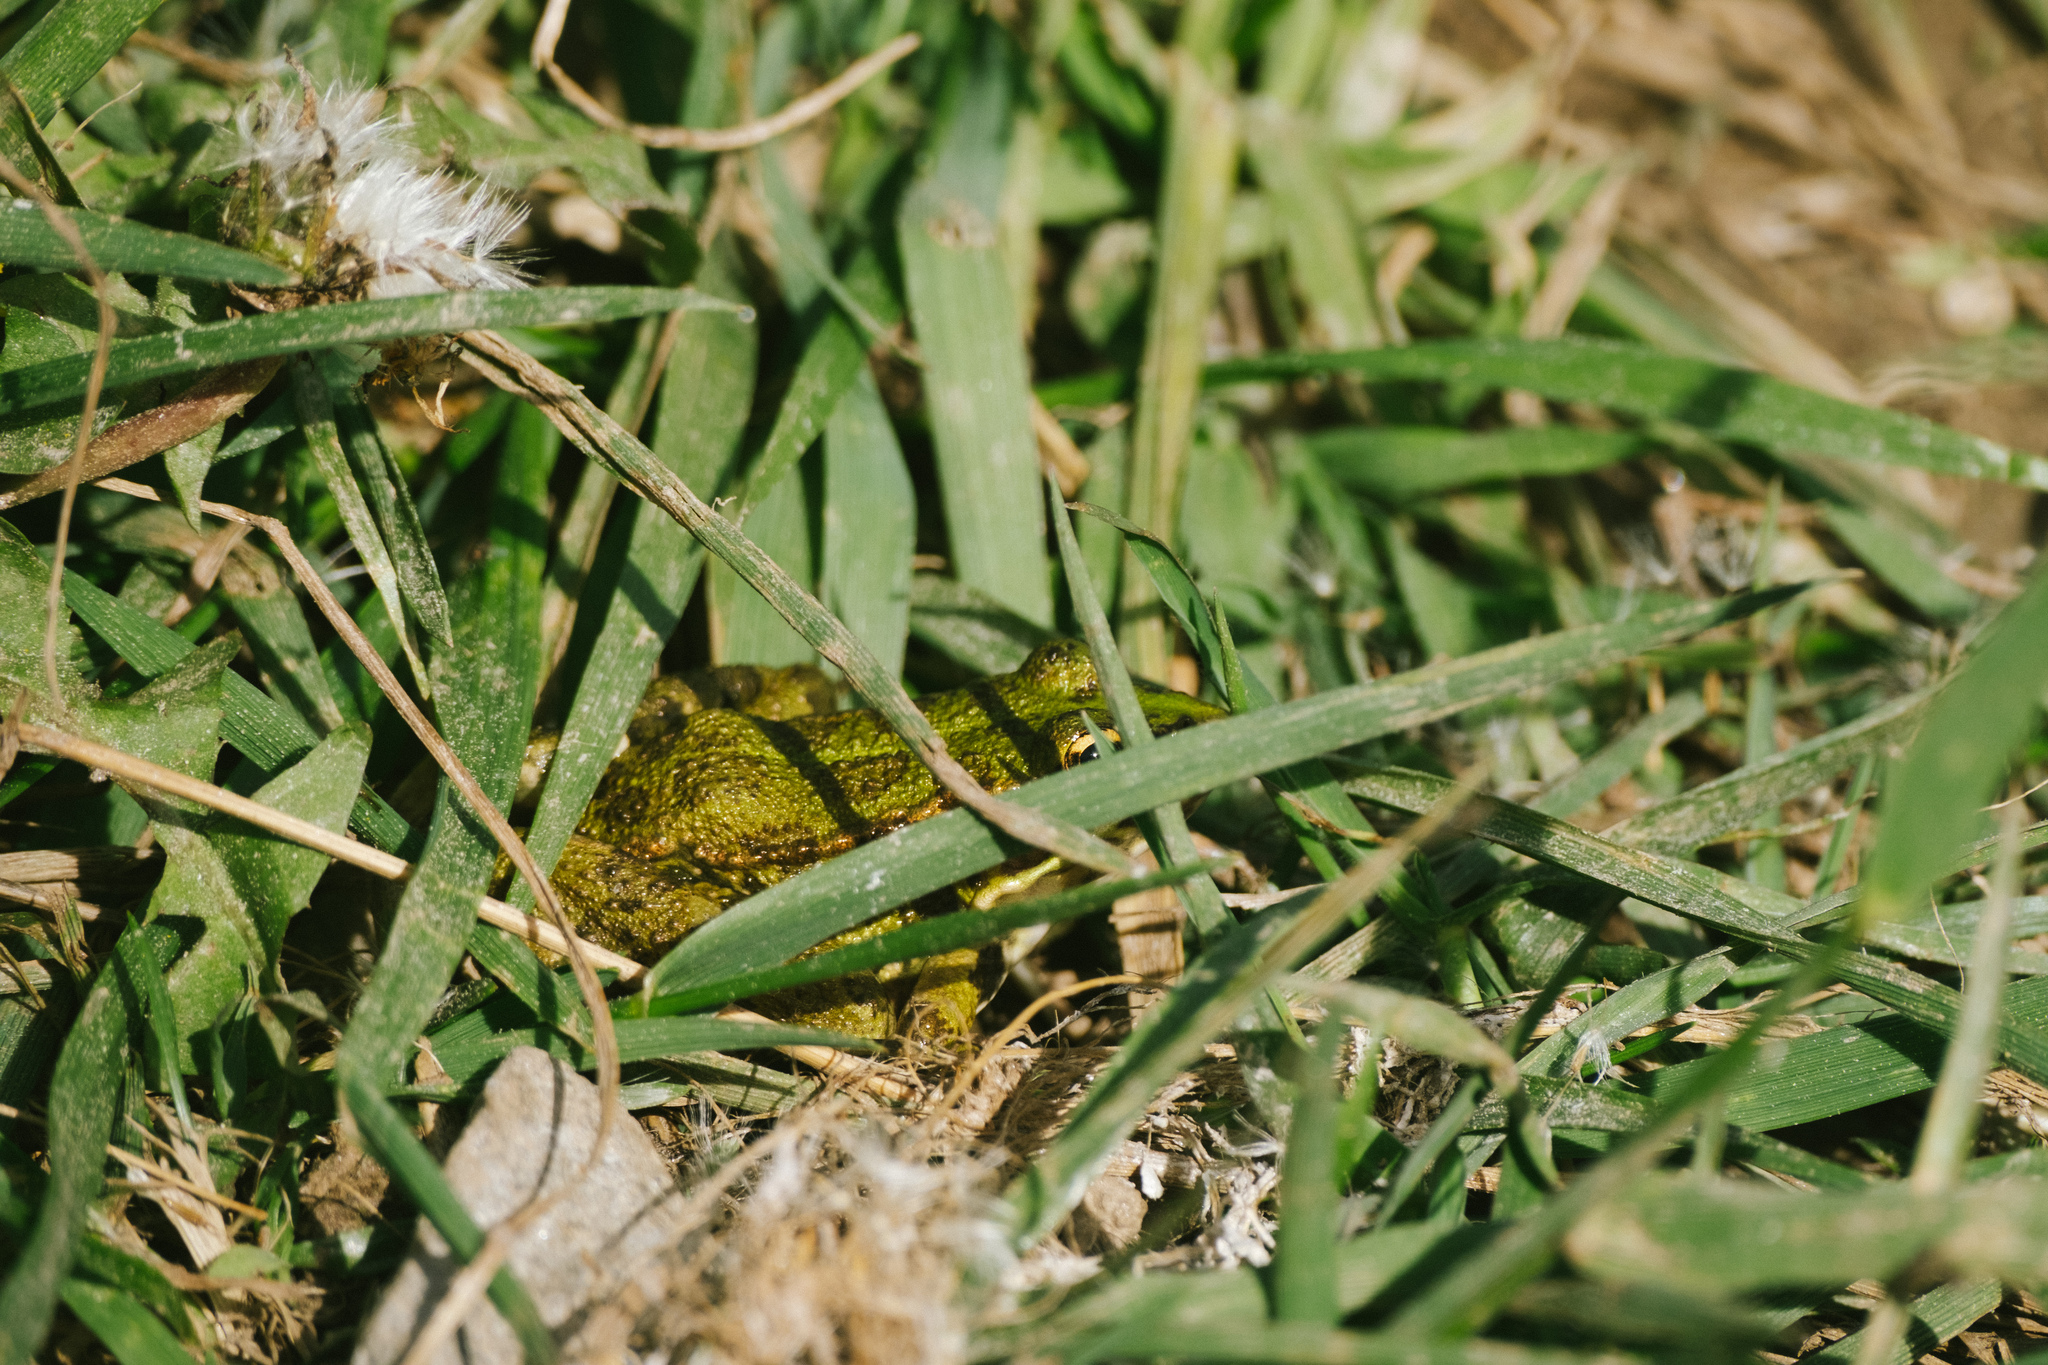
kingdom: Animalia
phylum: Chordata
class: Amphibia
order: Anura
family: Ranidae
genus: Pelophylax
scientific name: Pelophylax perezi
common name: Perez's frog
